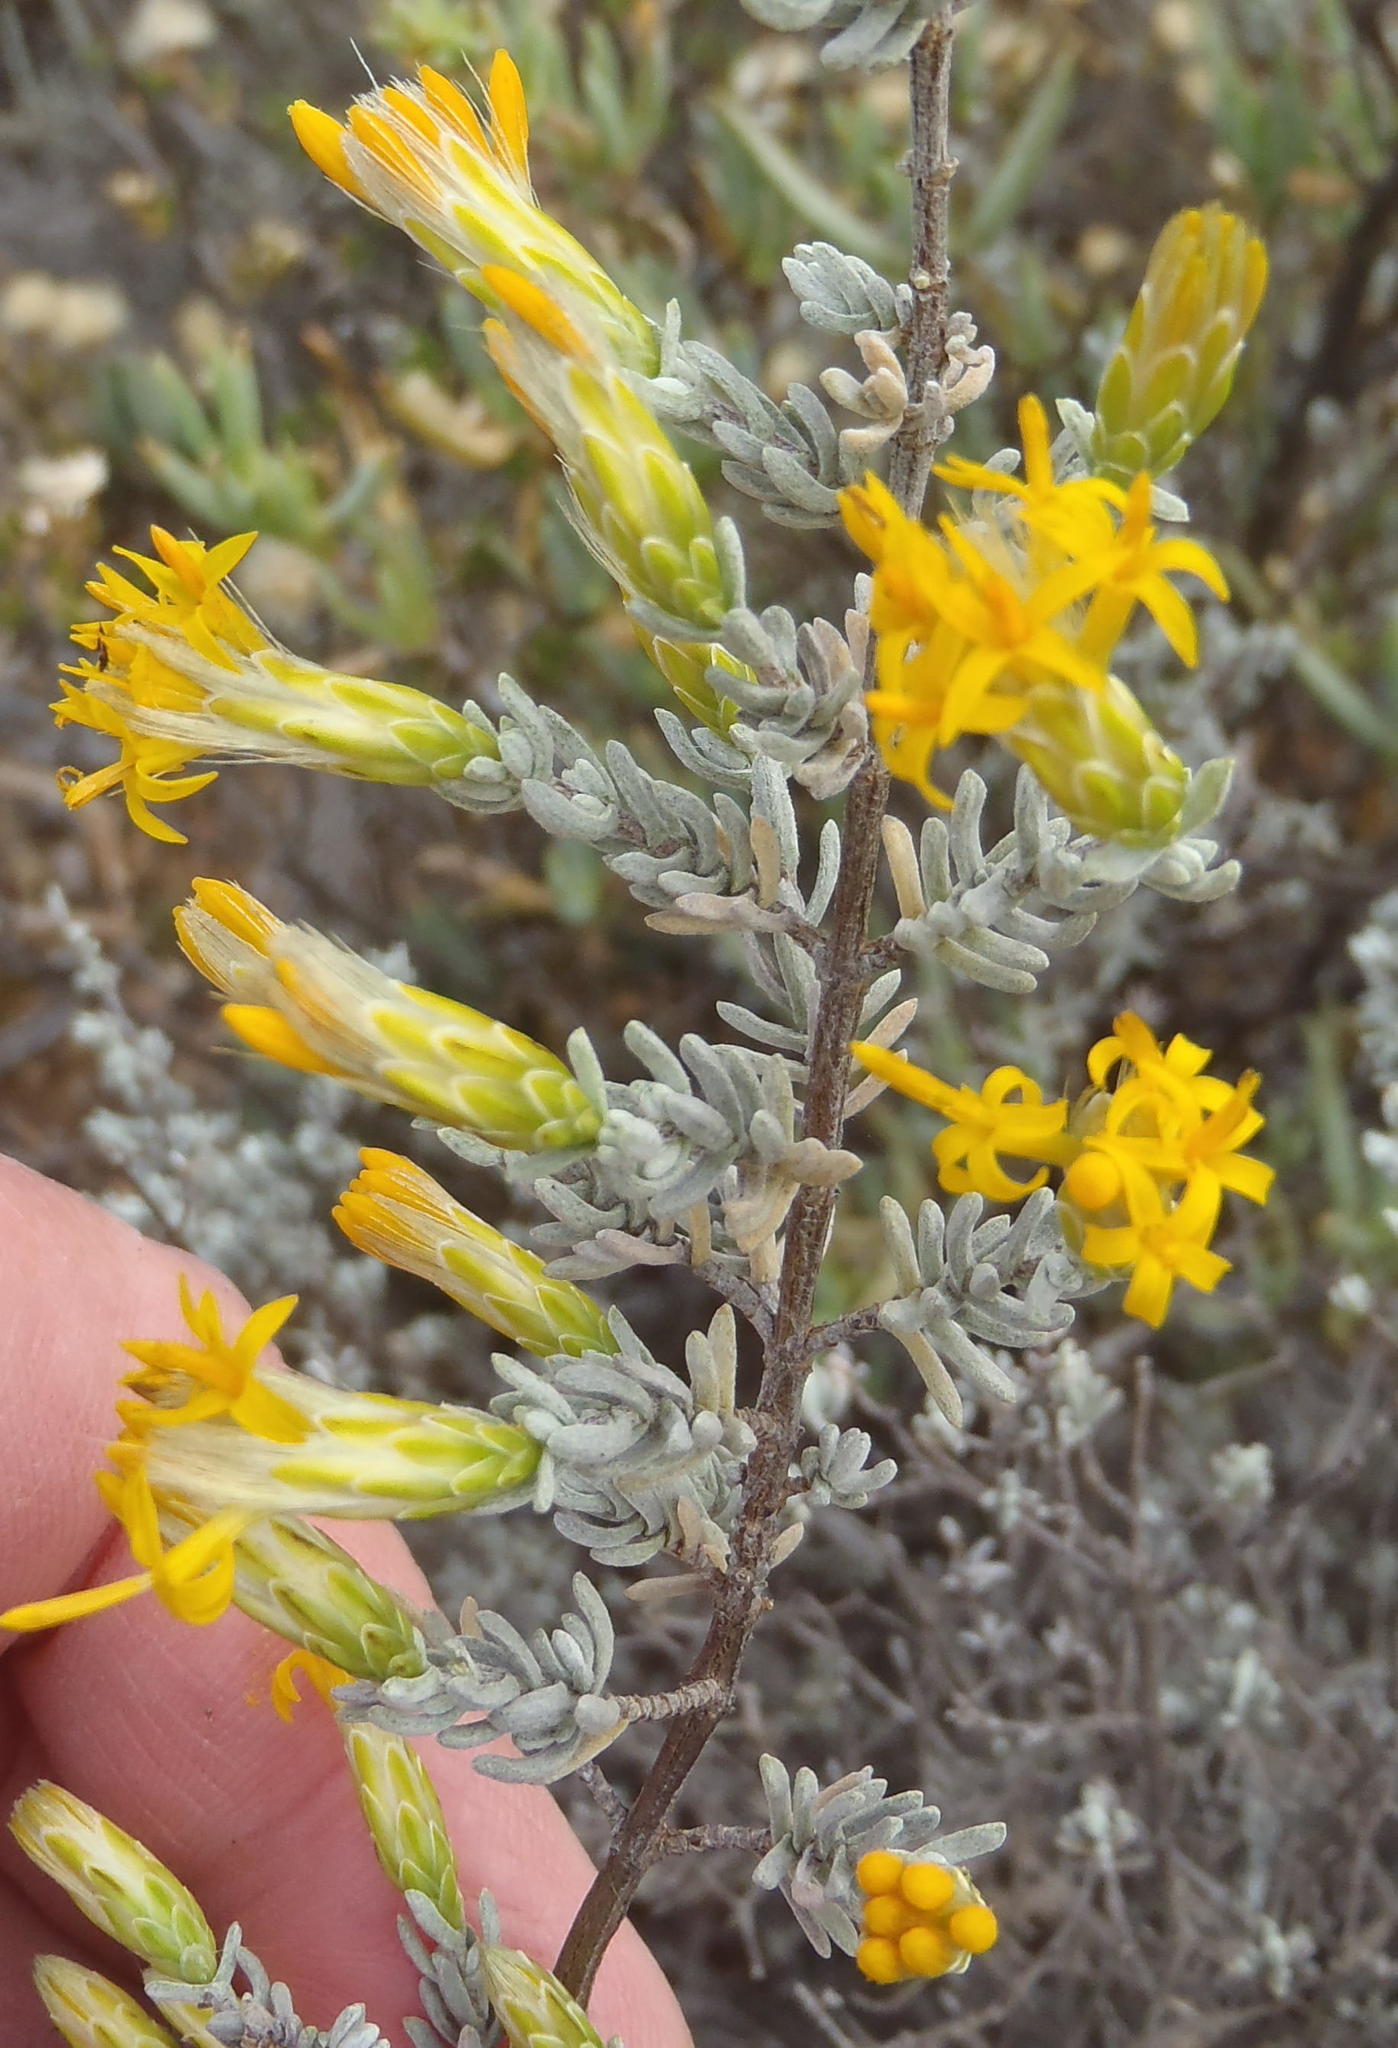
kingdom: Plantae
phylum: Tracheophyta
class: Magnoliopsida
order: Asterales
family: Asteraceae
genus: Pteronia
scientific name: Pteronia incana
